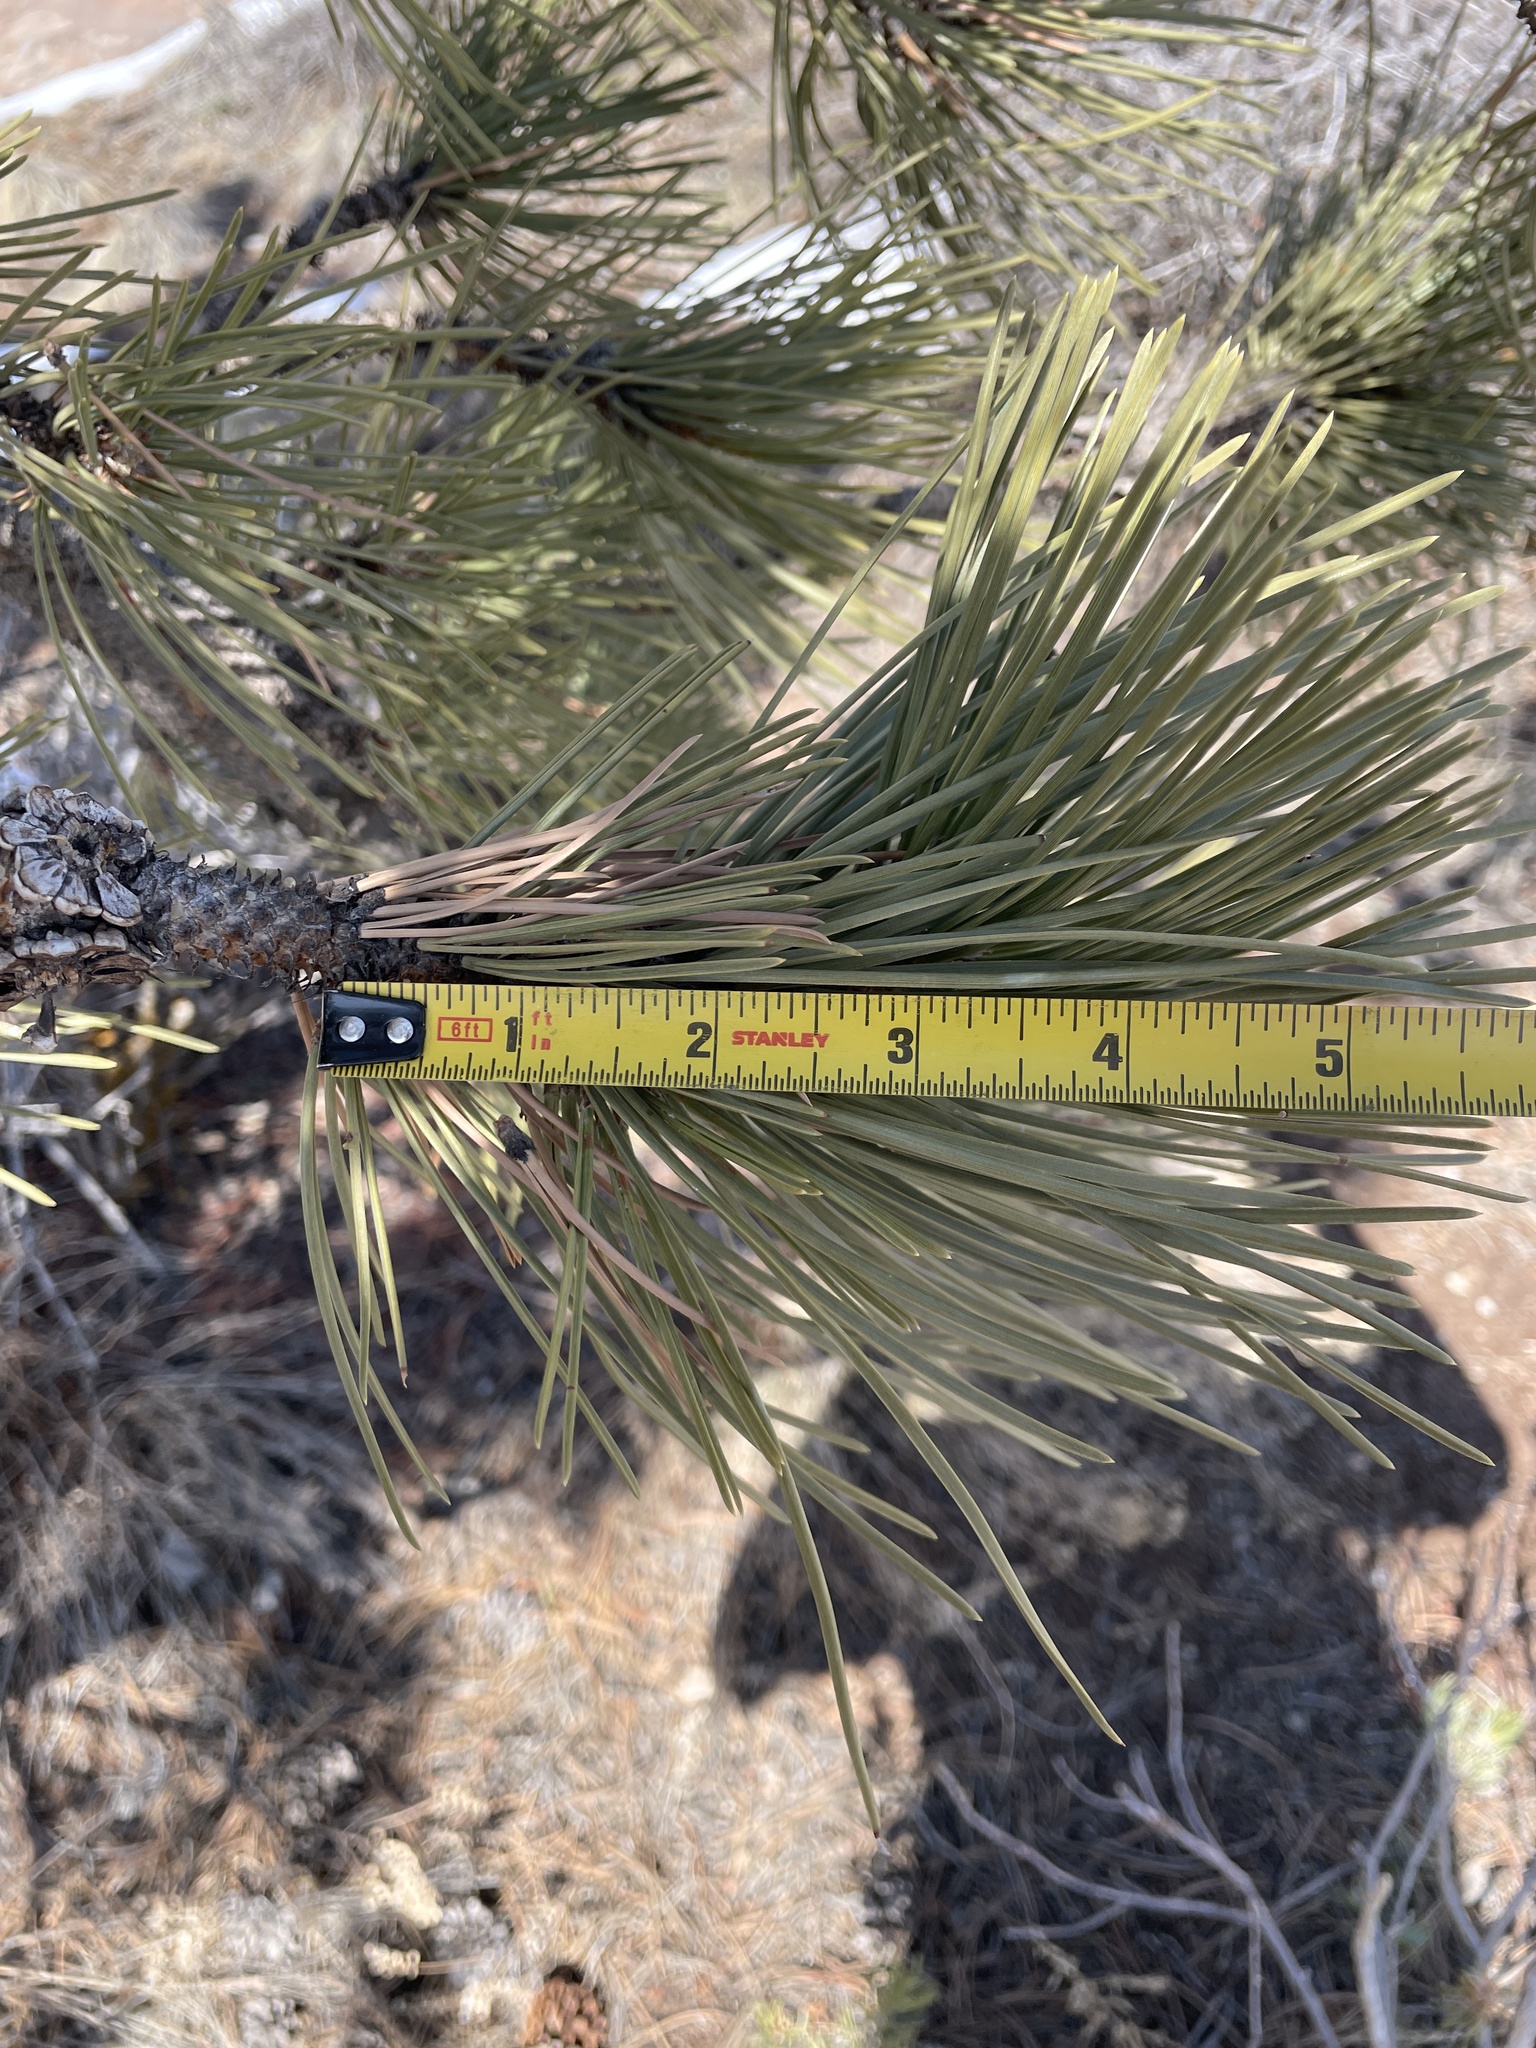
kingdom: Plantae
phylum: Tracheophyta
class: Pinopsida
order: Pinales
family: Pinaceae
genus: Pinus
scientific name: Pinus ponderosa
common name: Western yellow-pine
